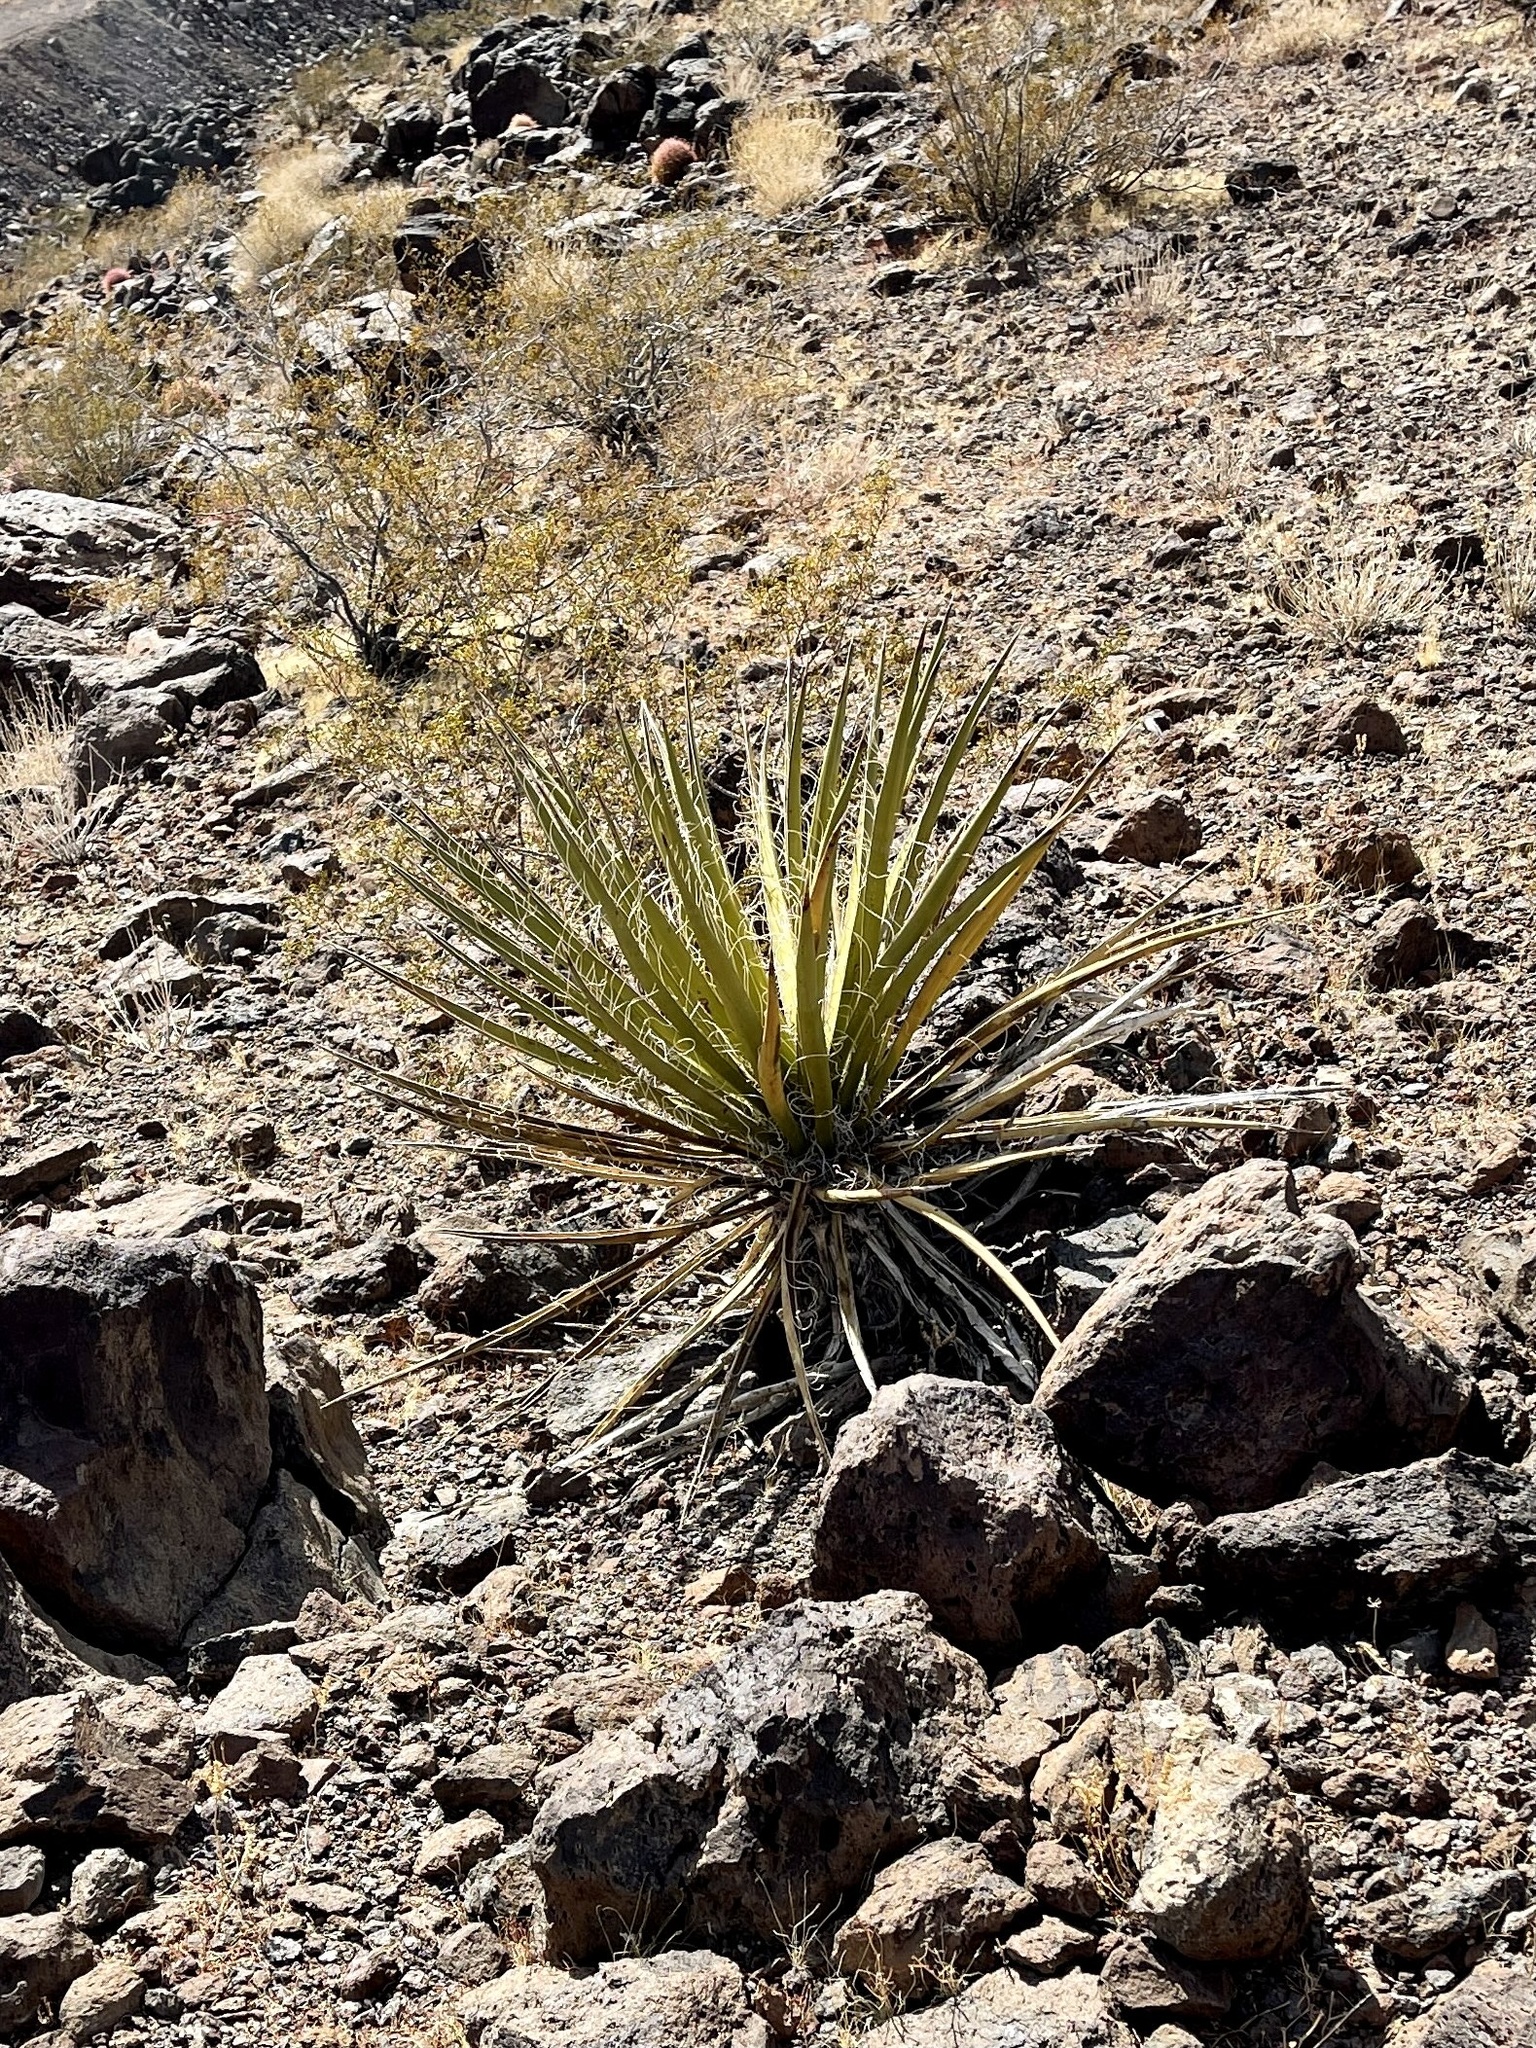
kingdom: Plantae
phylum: Tracheophyta
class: Liliopsida
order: Asparagales
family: Asparagaceae
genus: Yucca
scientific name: Yucca schidigera
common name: Mojave yucca
